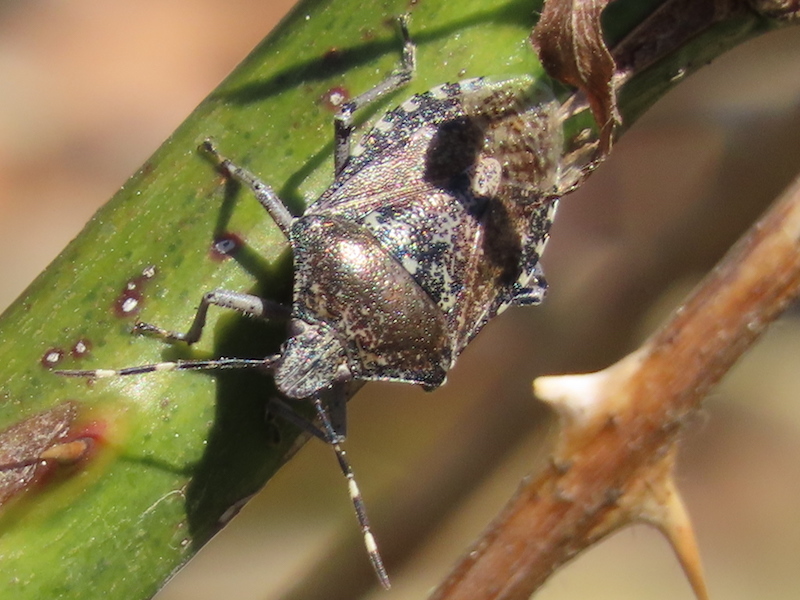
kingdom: Animalia
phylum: Arthropoda
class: Insecta
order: Hemiptera
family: Pentatomidae
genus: Rhaphigaster
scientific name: Rhaphigaster nebulosa
